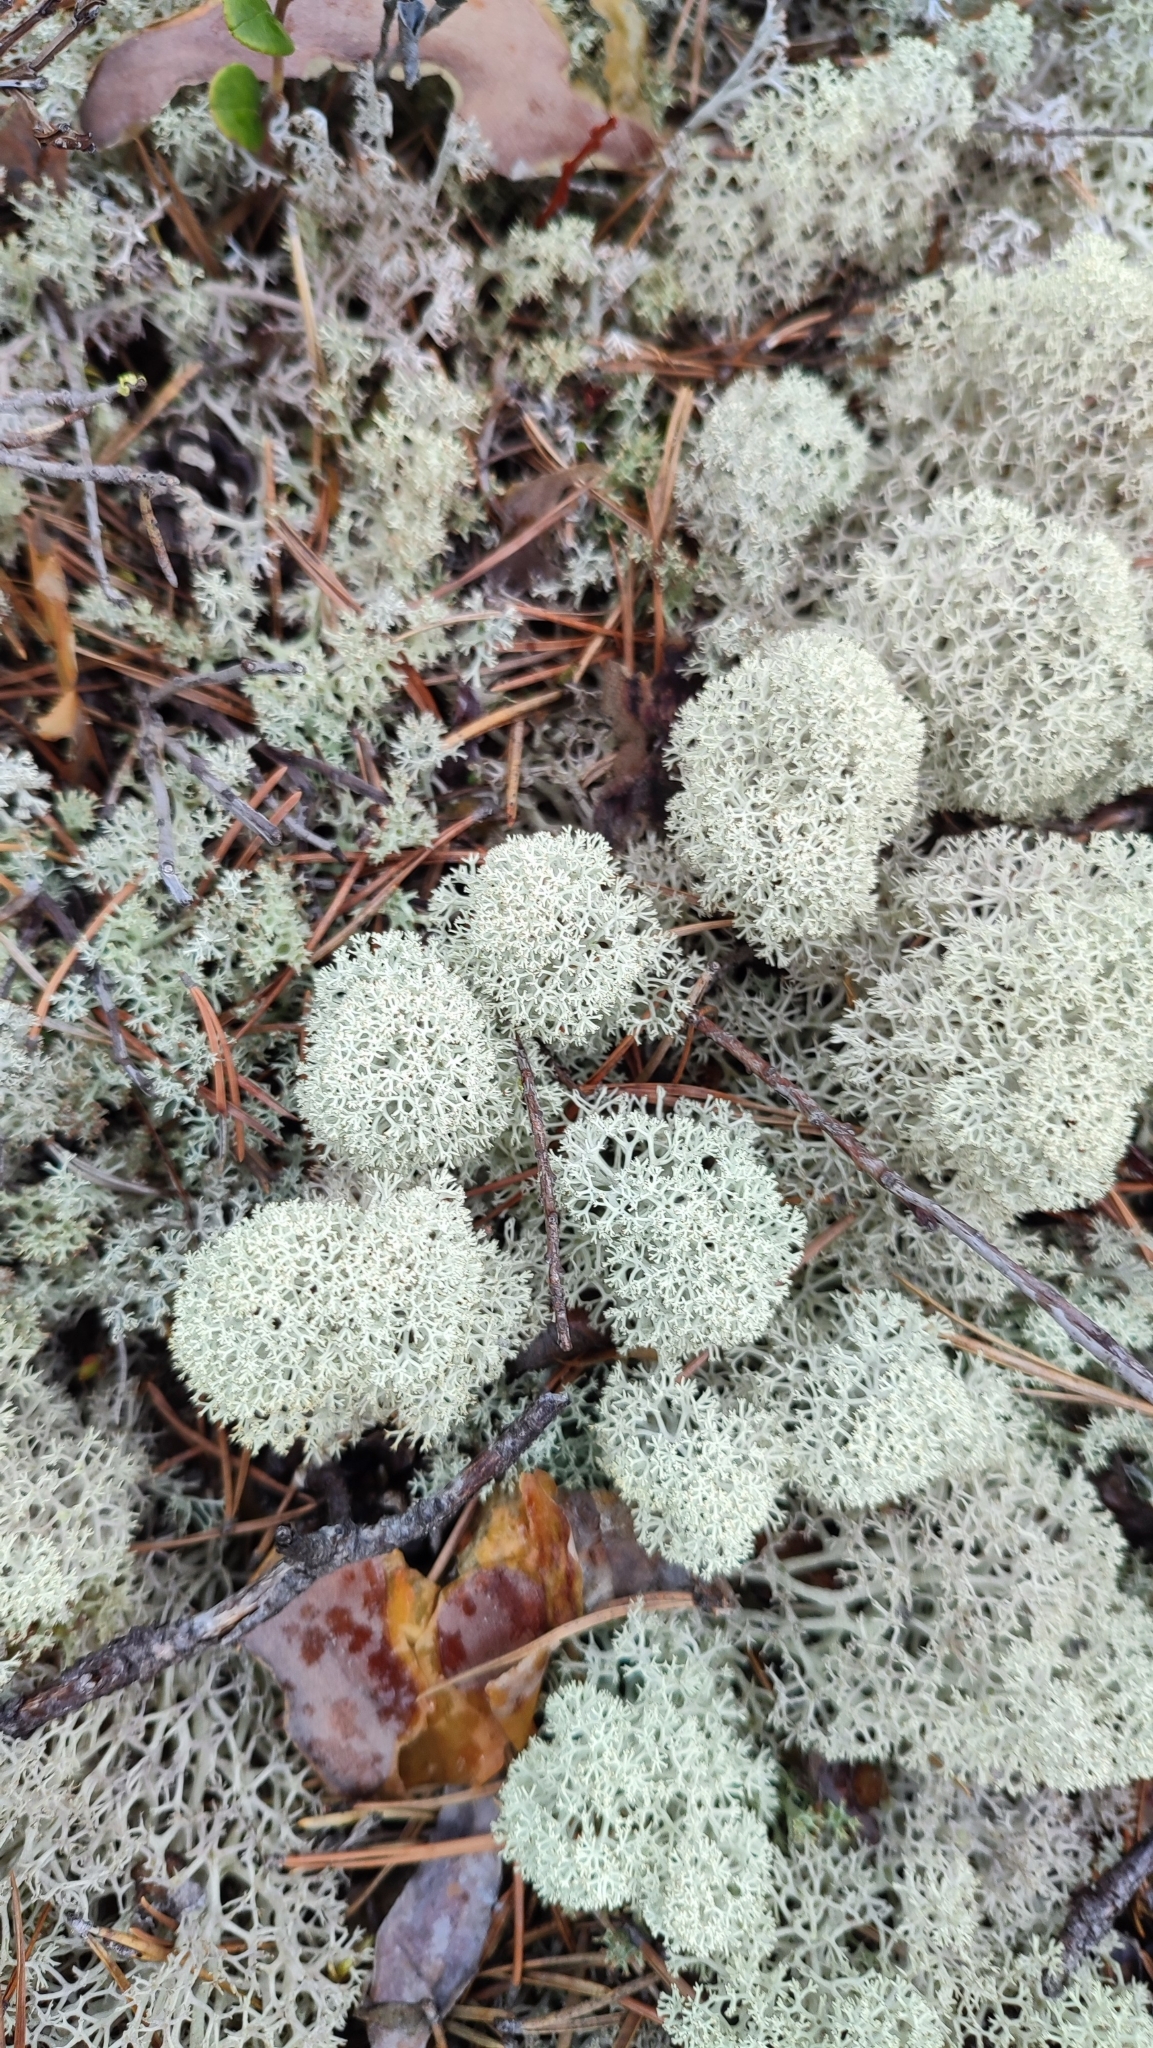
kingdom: Fungi
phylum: Ascomycota
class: Lecanoromycetes
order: Lecanorales
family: Cladoniaceae
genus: Cladonia
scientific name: Cladonia stellaris
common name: Star-tipped reindeer lichen
